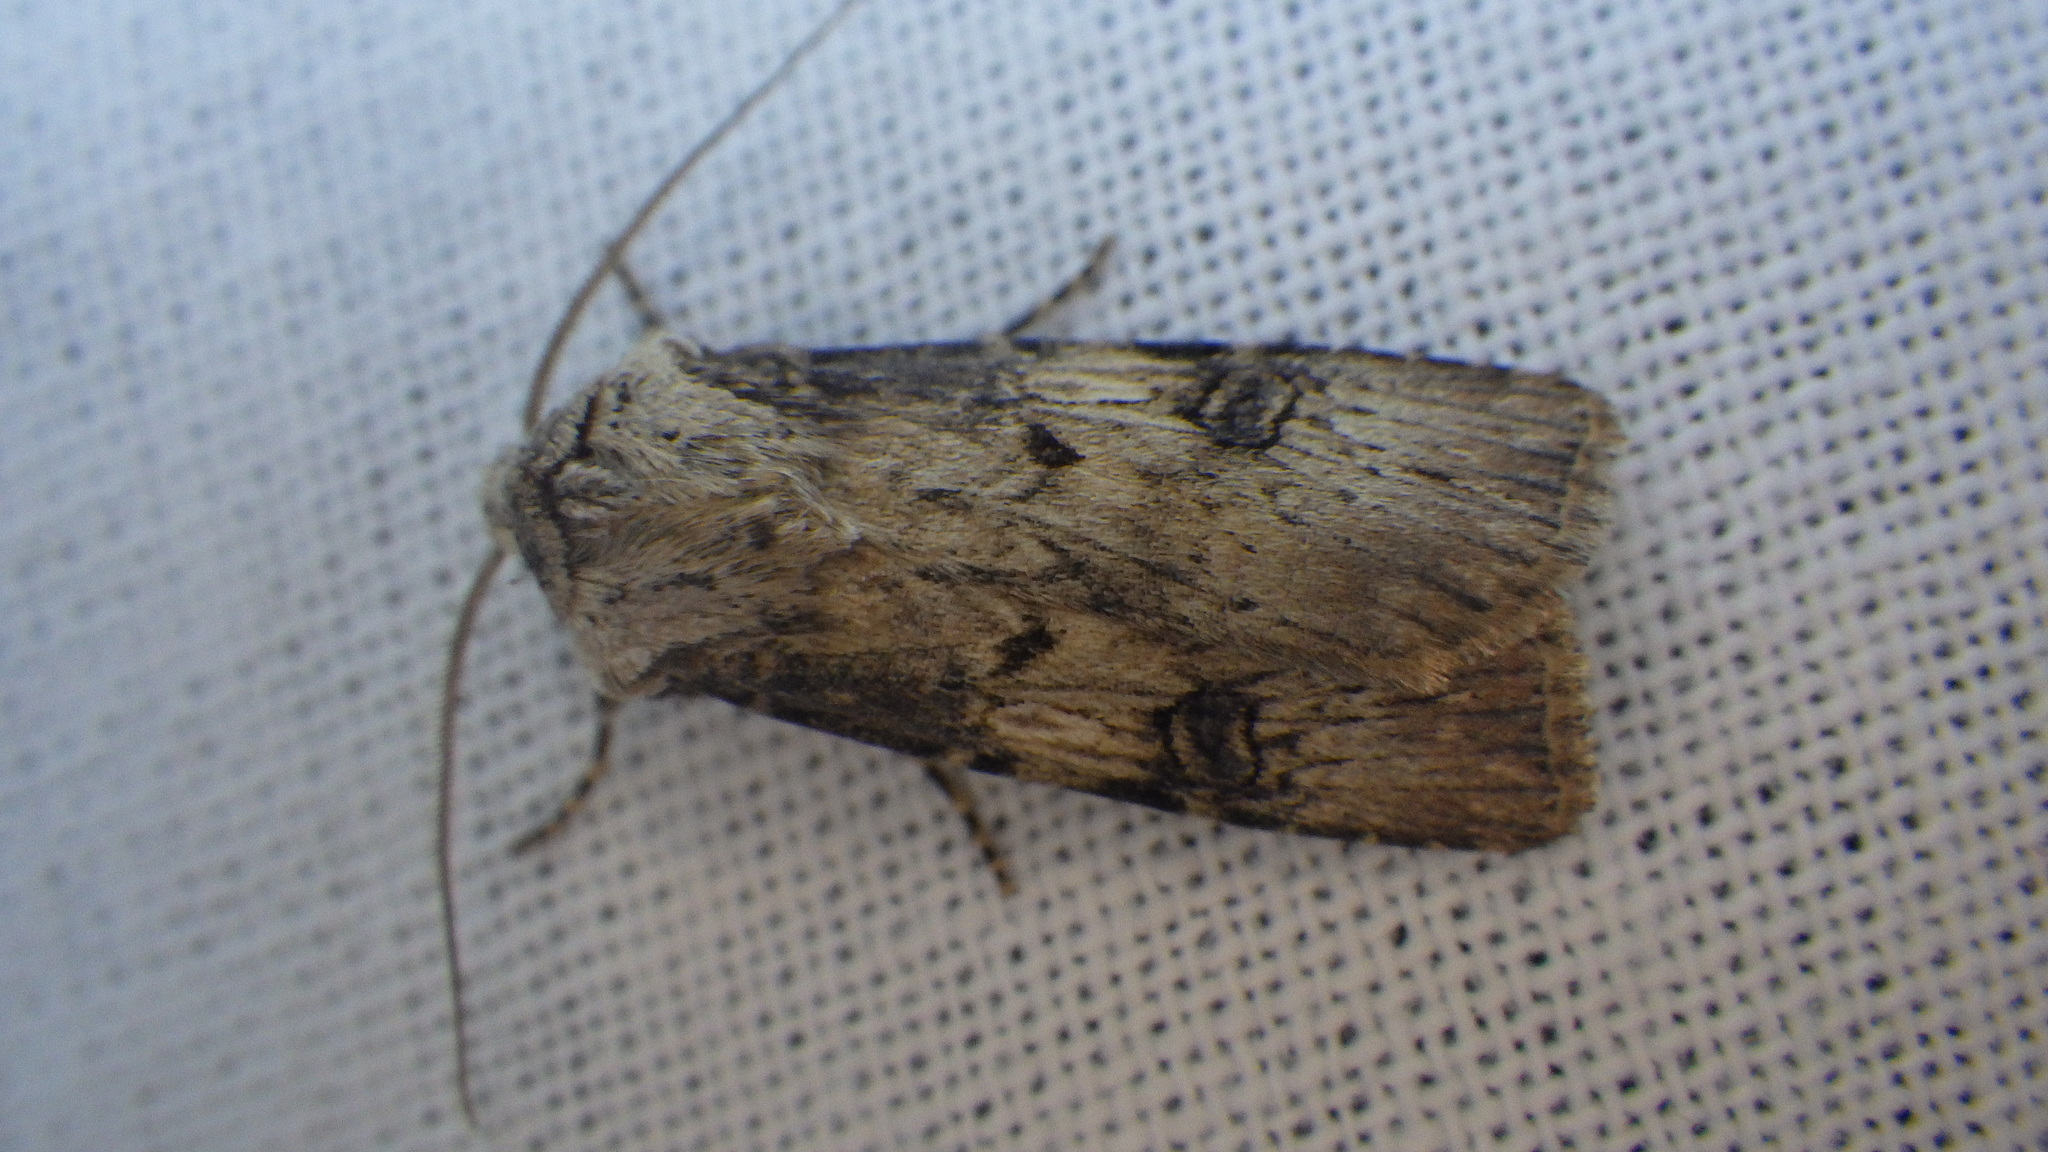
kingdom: Animalia
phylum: Arthropoda
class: Insecta
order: Lepidoptera
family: Noctuidae
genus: Agrotis
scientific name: Agrotis puta
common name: Shuttle-shaped dart
